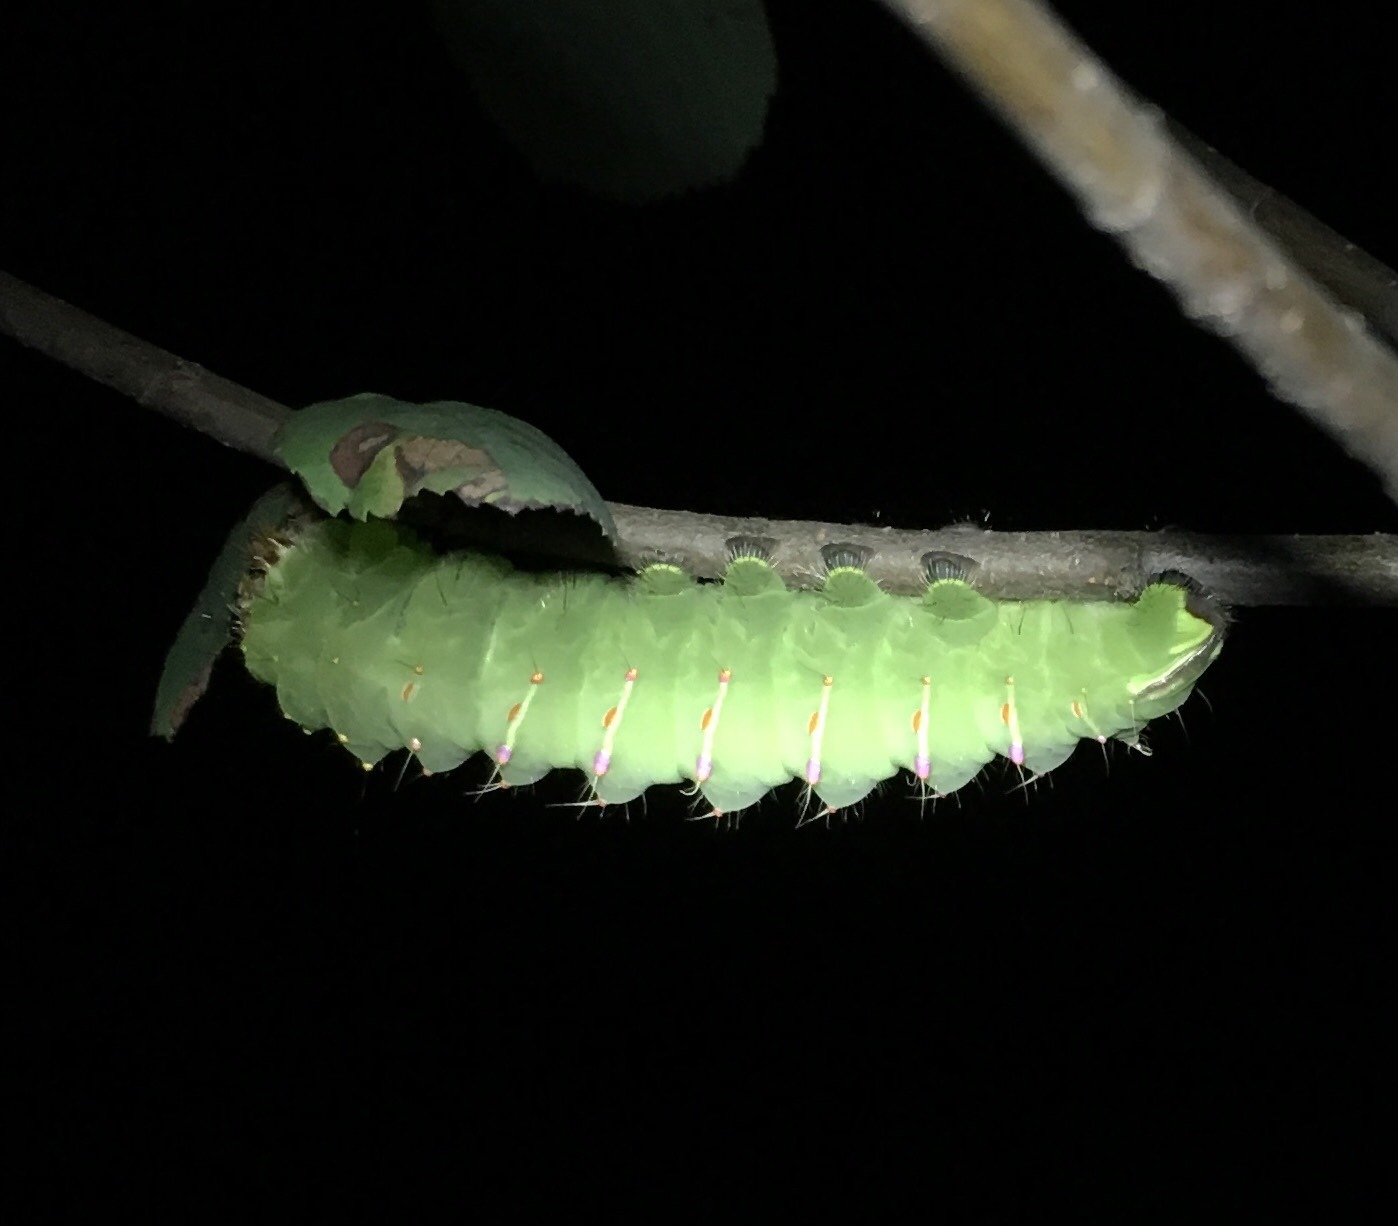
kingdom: Animalia
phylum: Arthropoda
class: Insecta
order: Lepidoptera
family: Saturniidae
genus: Antheraea
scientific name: Antheraea polyphemus
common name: Polyphemus moth
